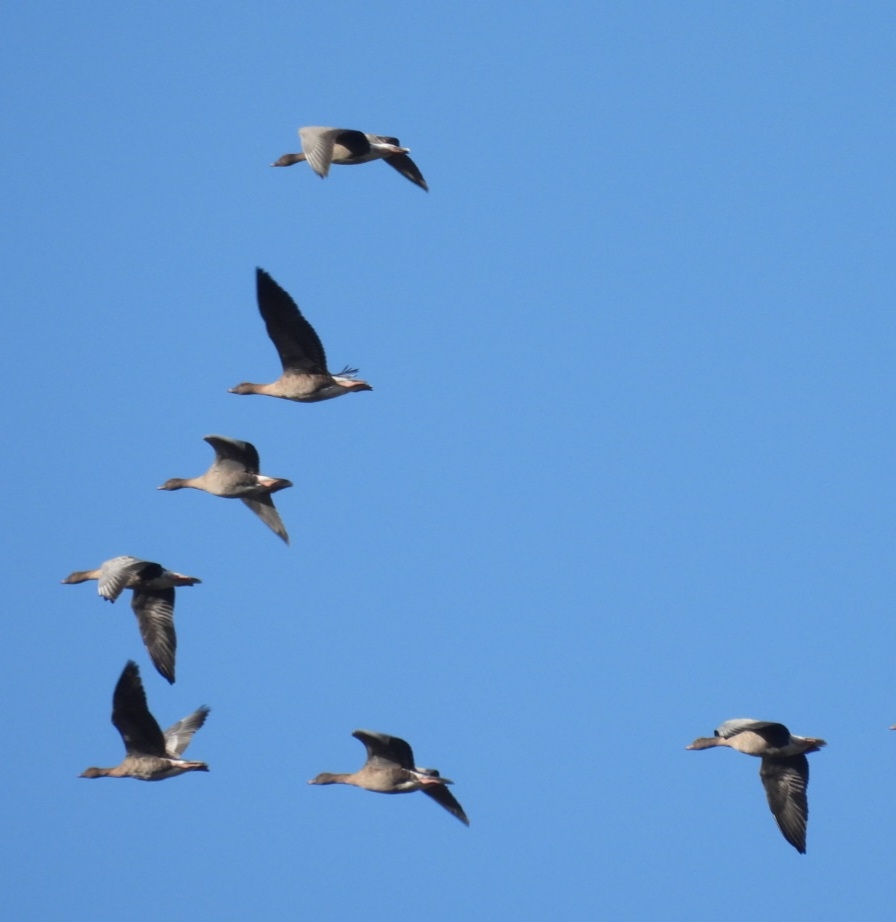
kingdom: Animalia
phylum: Chordata
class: Aves
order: Anseriformes
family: Anatidae
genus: Anser
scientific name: Anser brachyrhynchus
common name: Pink-footed goose
